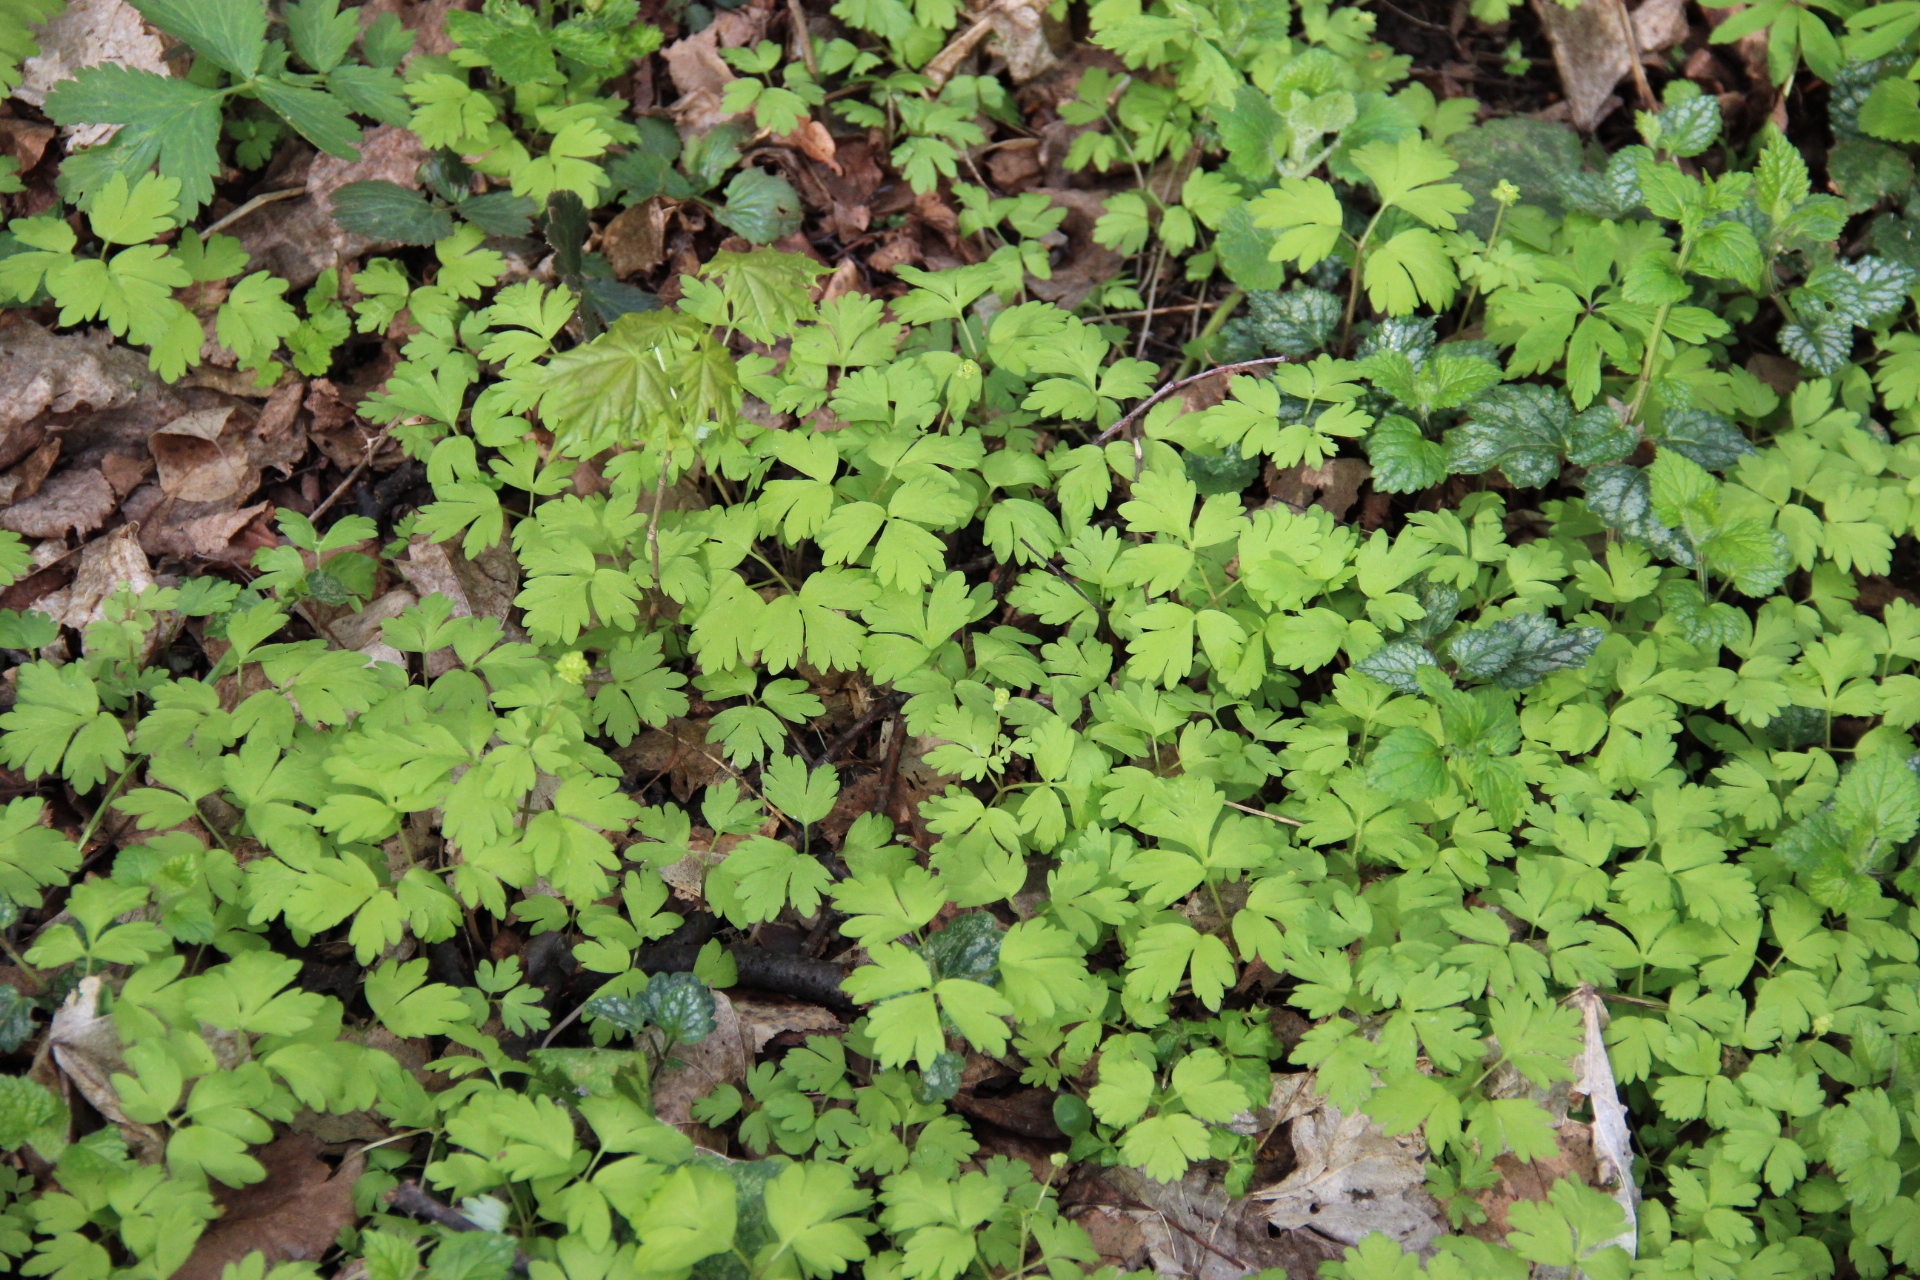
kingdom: Plantae
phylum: Tracheophyta
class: Magnoliopsida
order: Dipsacales
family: Viburnaceae
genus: Adoxa
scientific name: Adoxa moschatellina
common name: Moschatel
